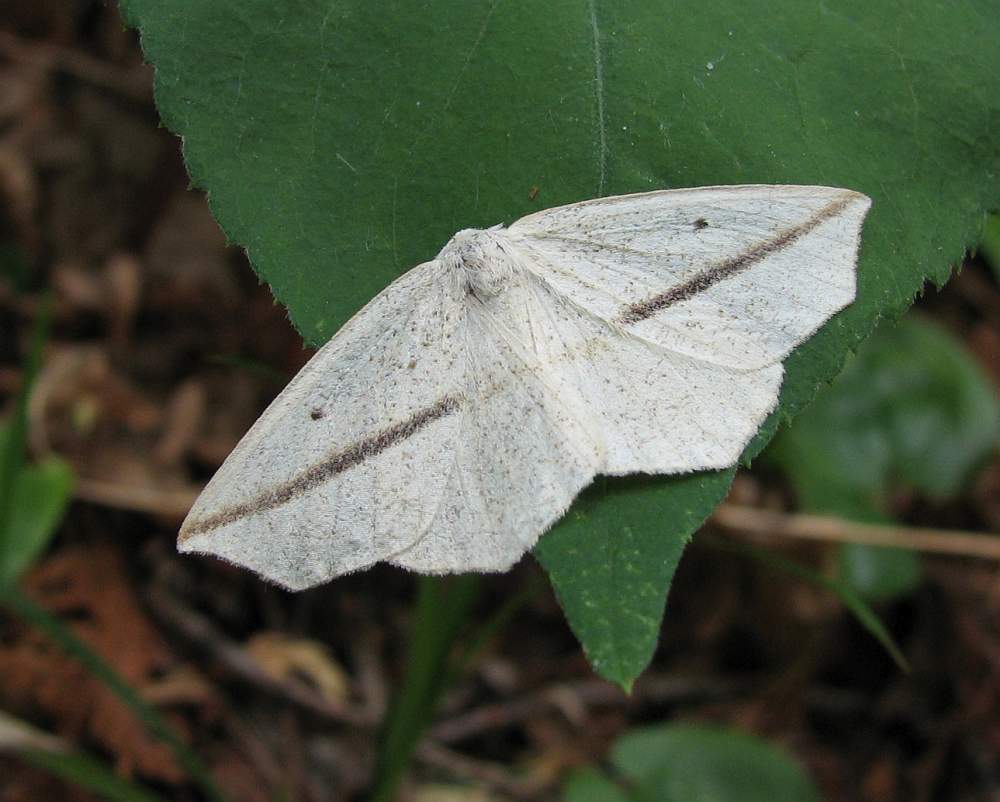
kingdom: Animalia
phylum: Arthropoda
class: Insecta
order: Lepidoptera
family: Geometridae
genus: Tetracis
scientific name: Tetracis crocallata
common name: Yellow slant-line
